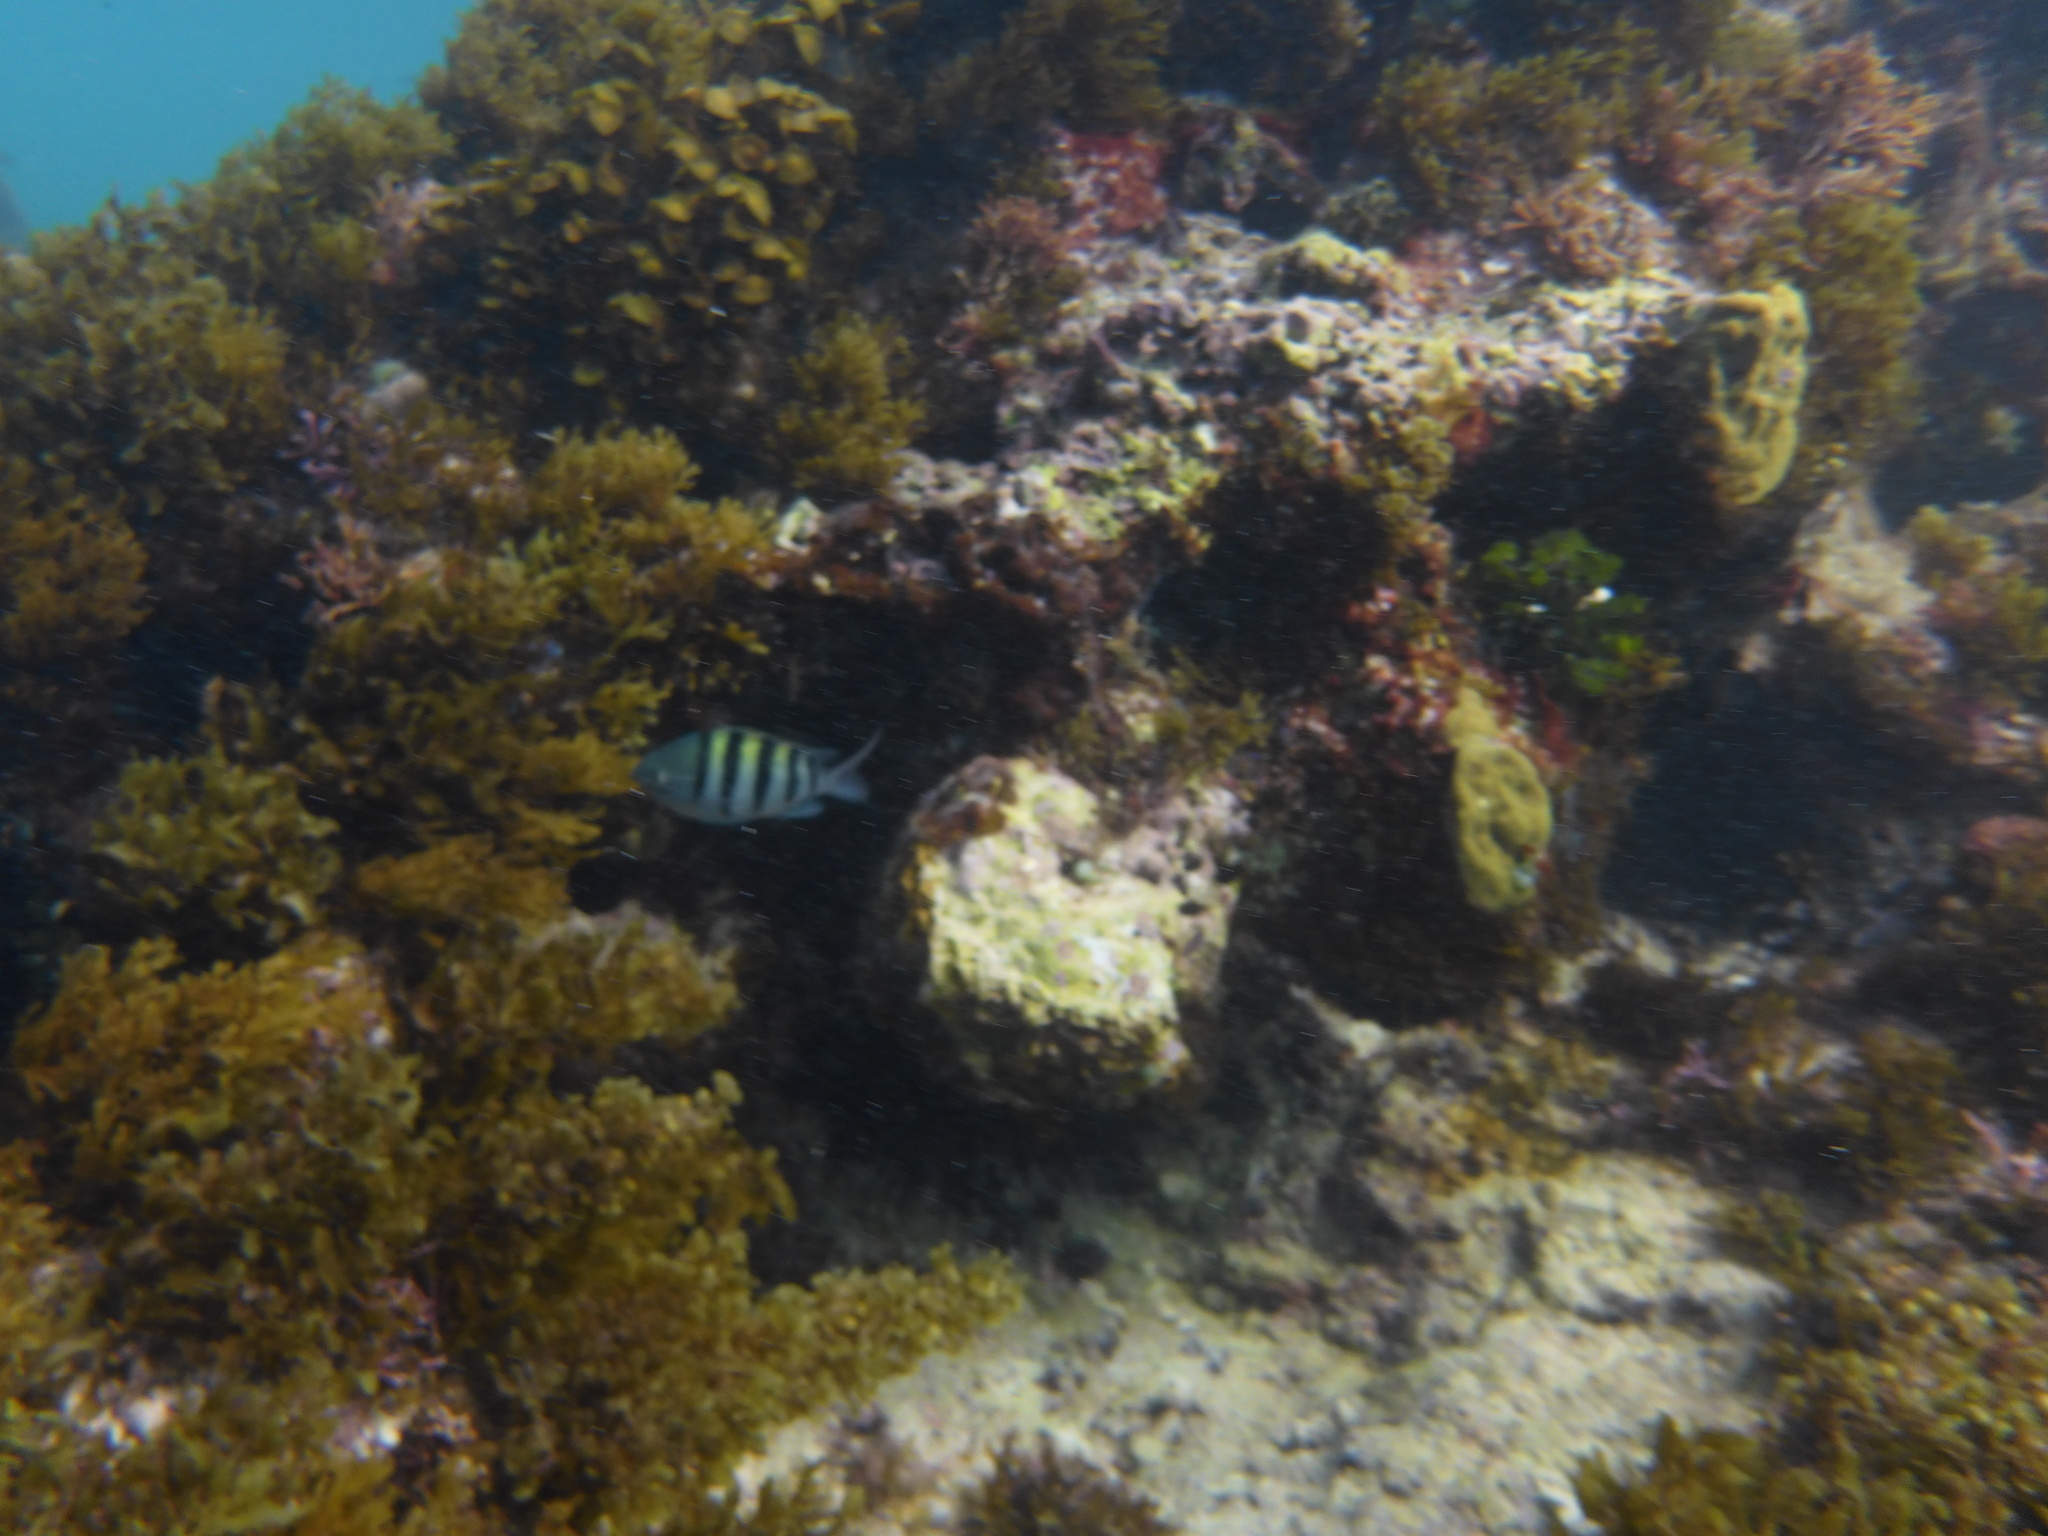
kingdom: Animalia
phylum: Chordata
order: Perciformes
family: Pomacentridae
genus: Abudefduf
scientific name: Abudefduf saxatilis
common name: Sergeant major
